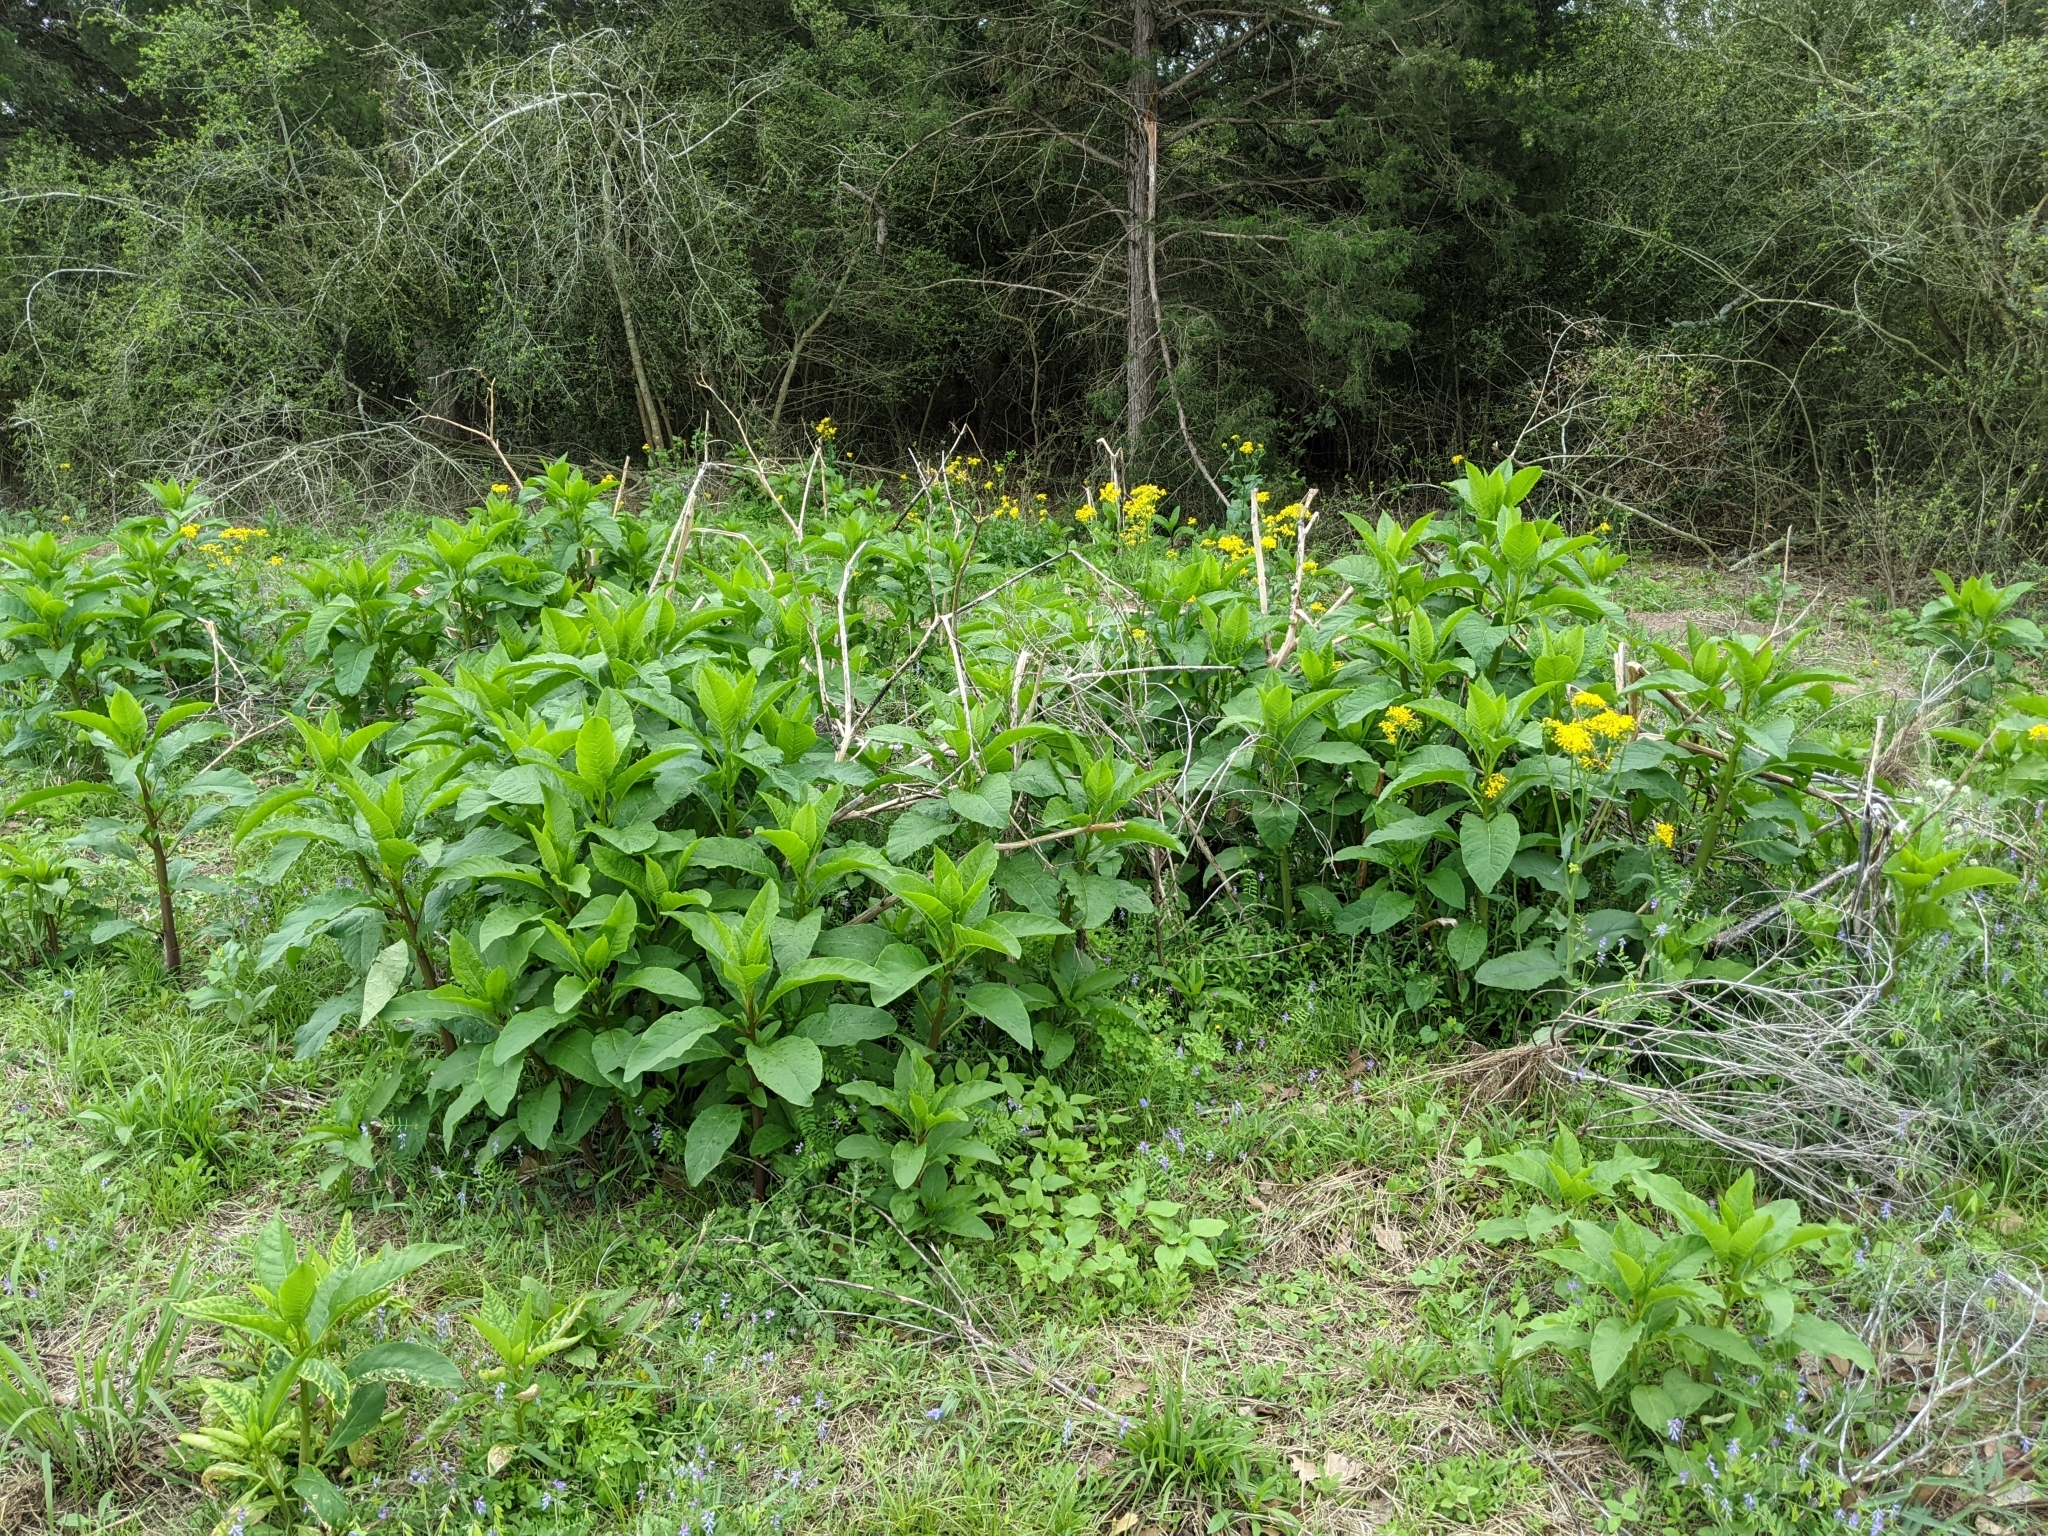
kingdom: Plantae
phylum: Tracheophyta
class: Magnoliopsida
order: Caryophyllales
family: Phytolaccaceae
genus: Phytolacca
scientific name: Phytolacca americana
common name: American pokeweed
